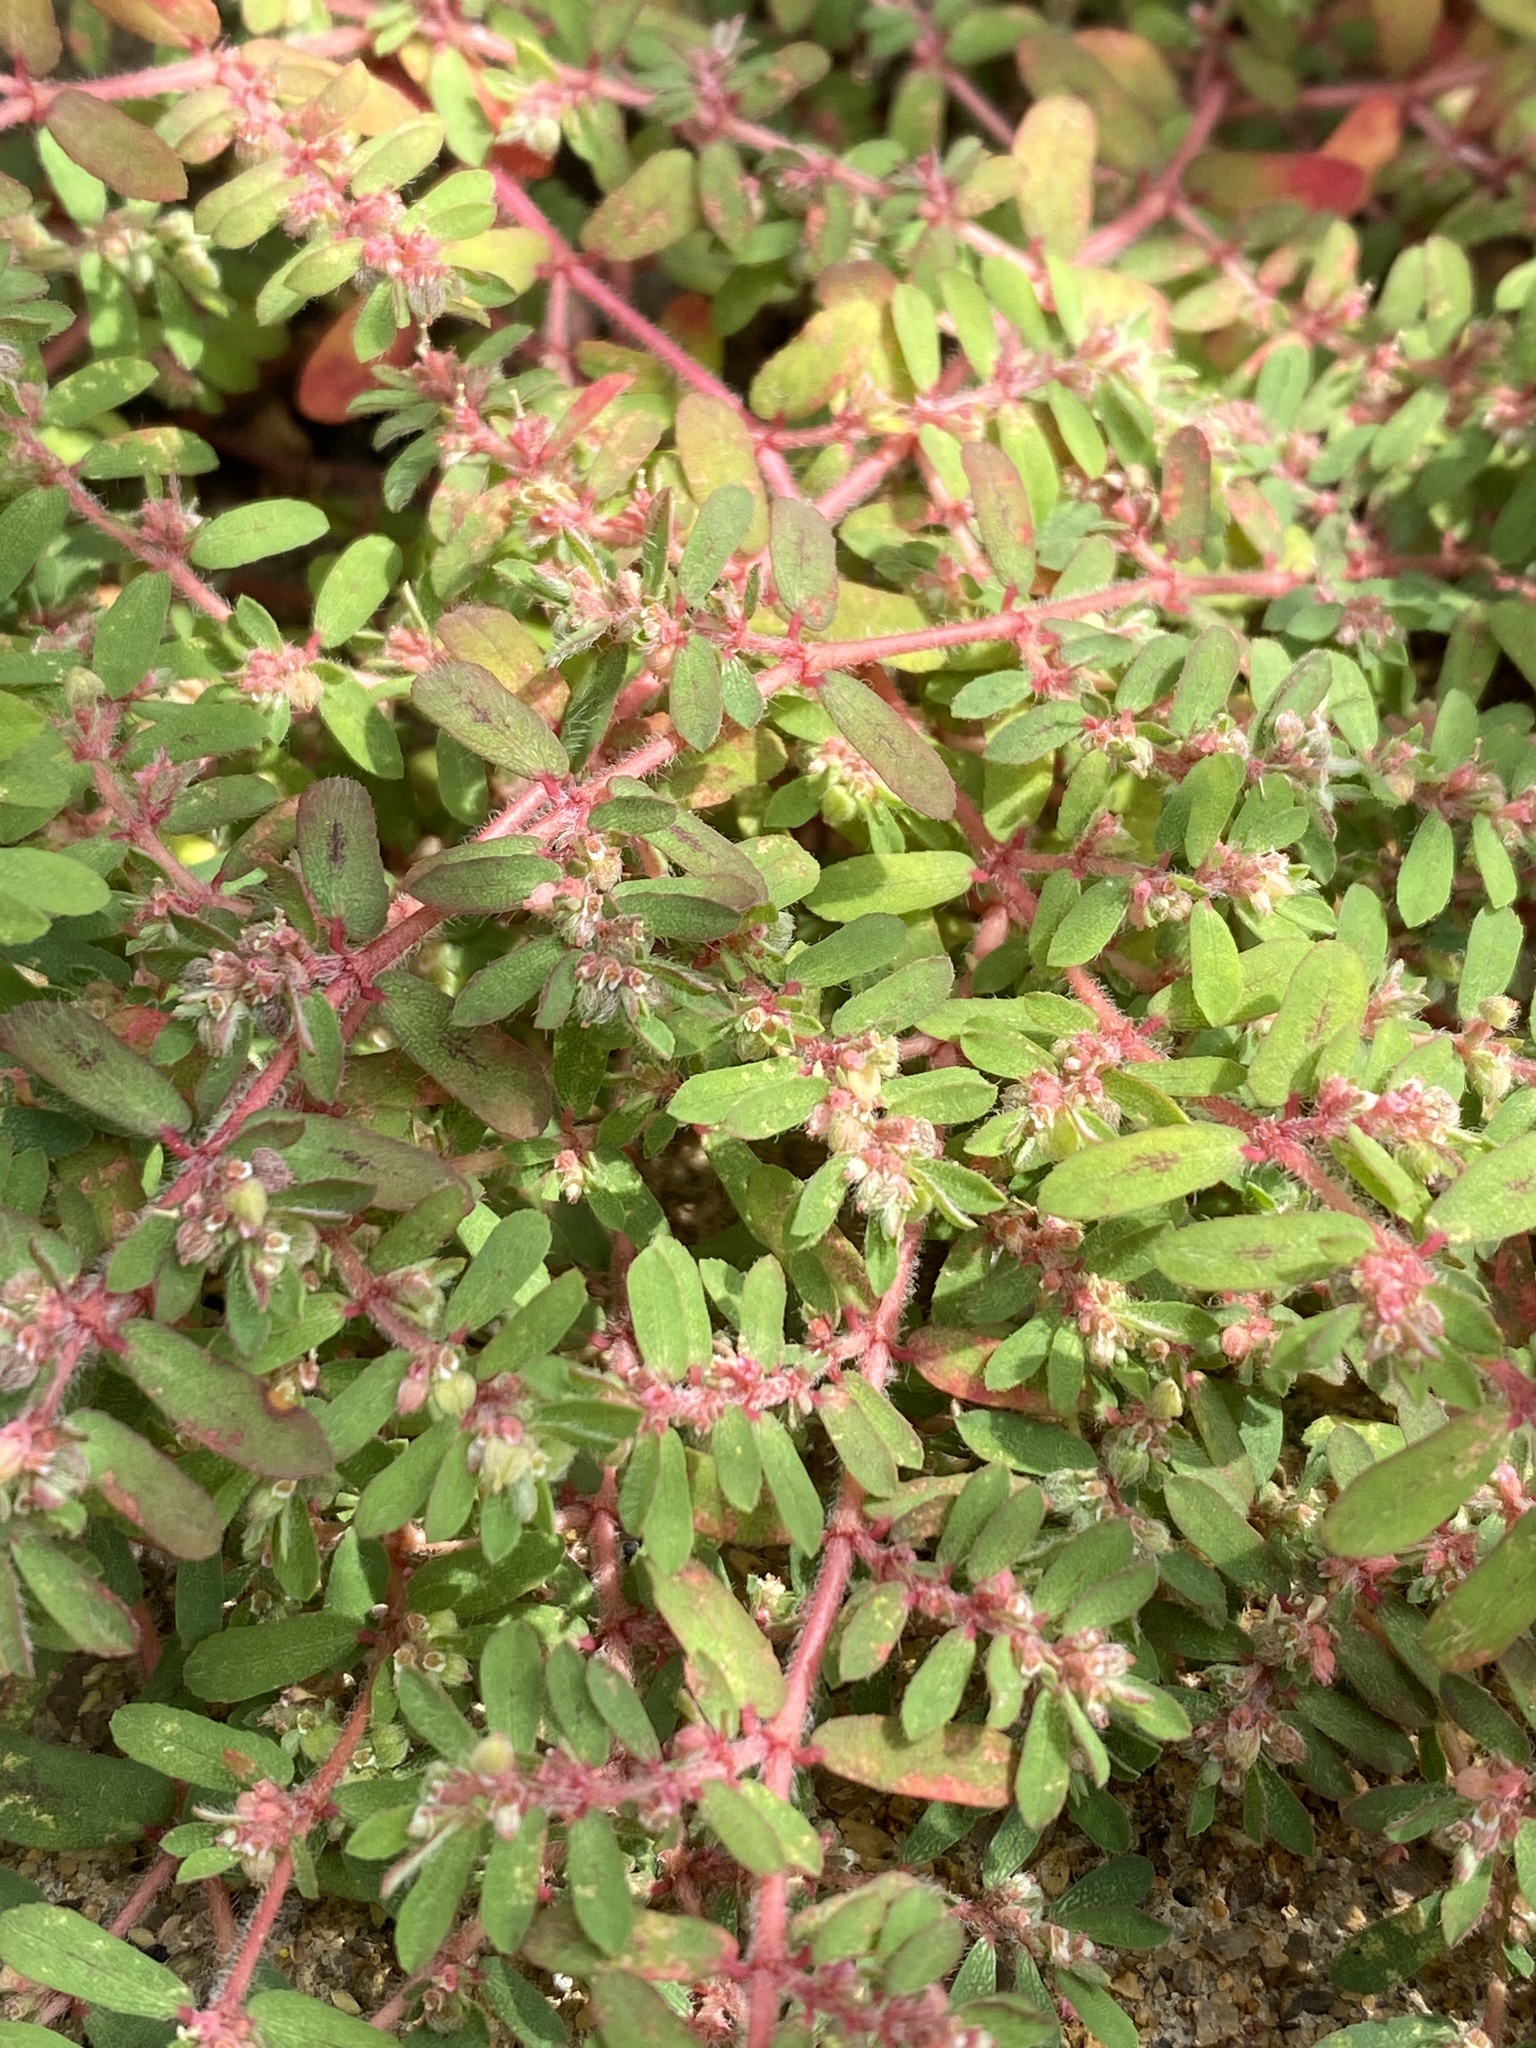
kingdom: Plantae
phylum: Tracheophyta
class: Magnoliopsida
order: Malpighiales
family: Euphorbiaceae
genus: Euphorbia
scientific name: Euphorbia maculata
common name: Spotted spurge
